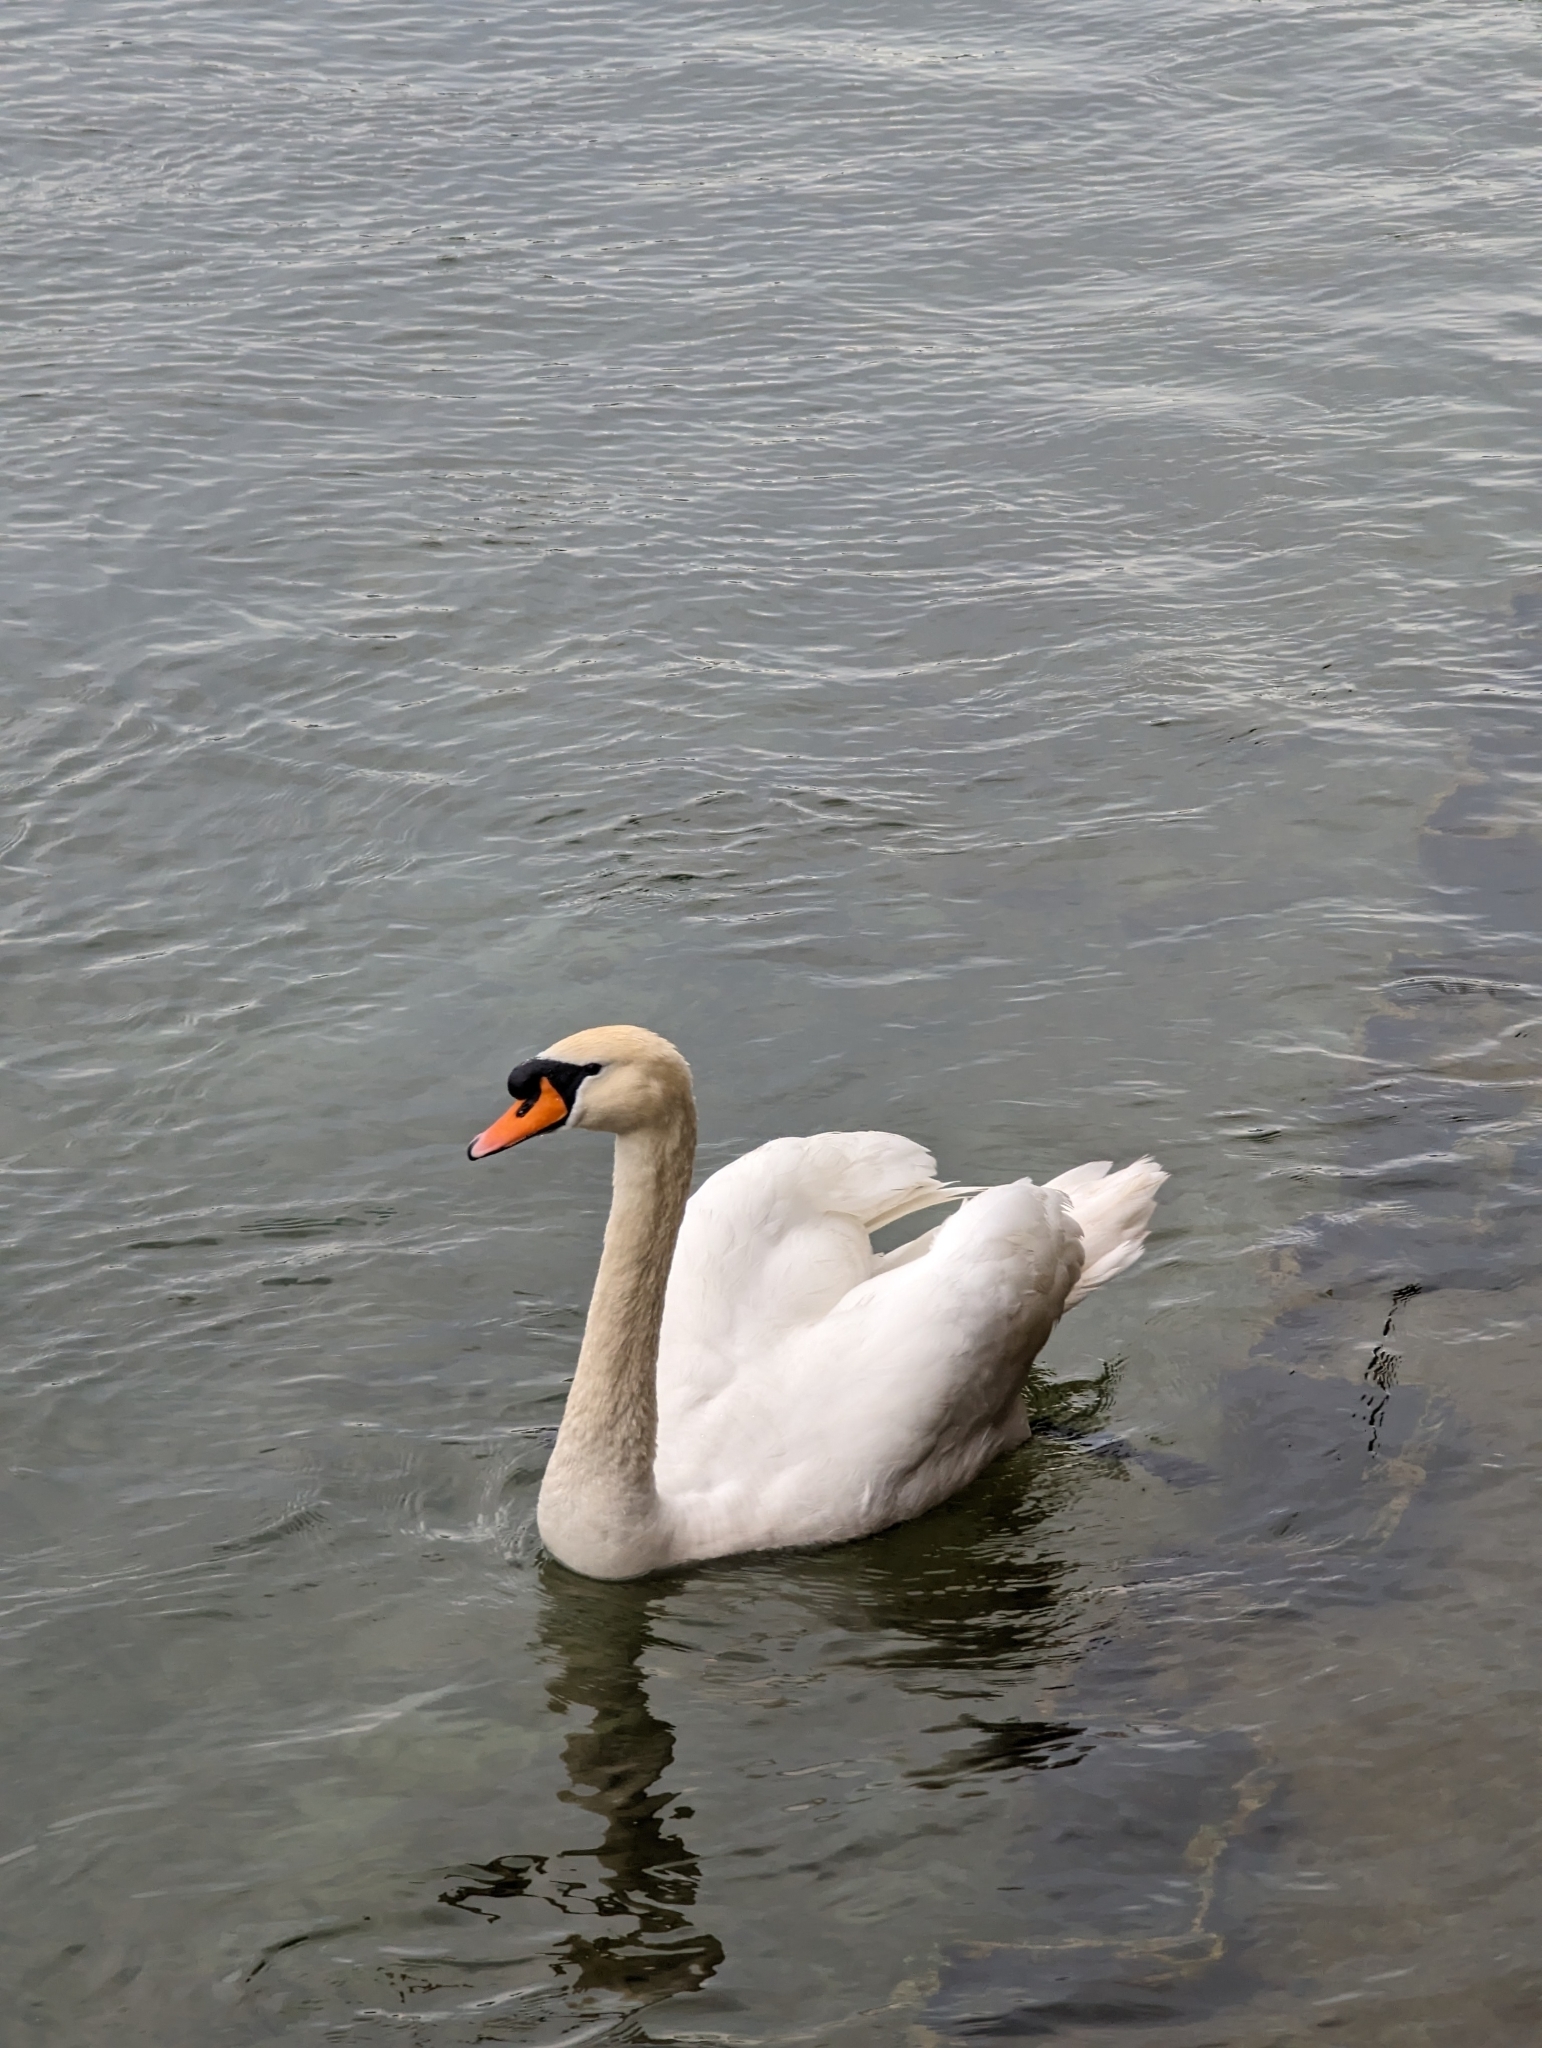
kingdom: Animalia
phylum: Chordata
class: Aves
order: Anseriformes
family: Anatidae
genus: Cygnus
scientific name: Cygnus olor
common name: Mute swan
